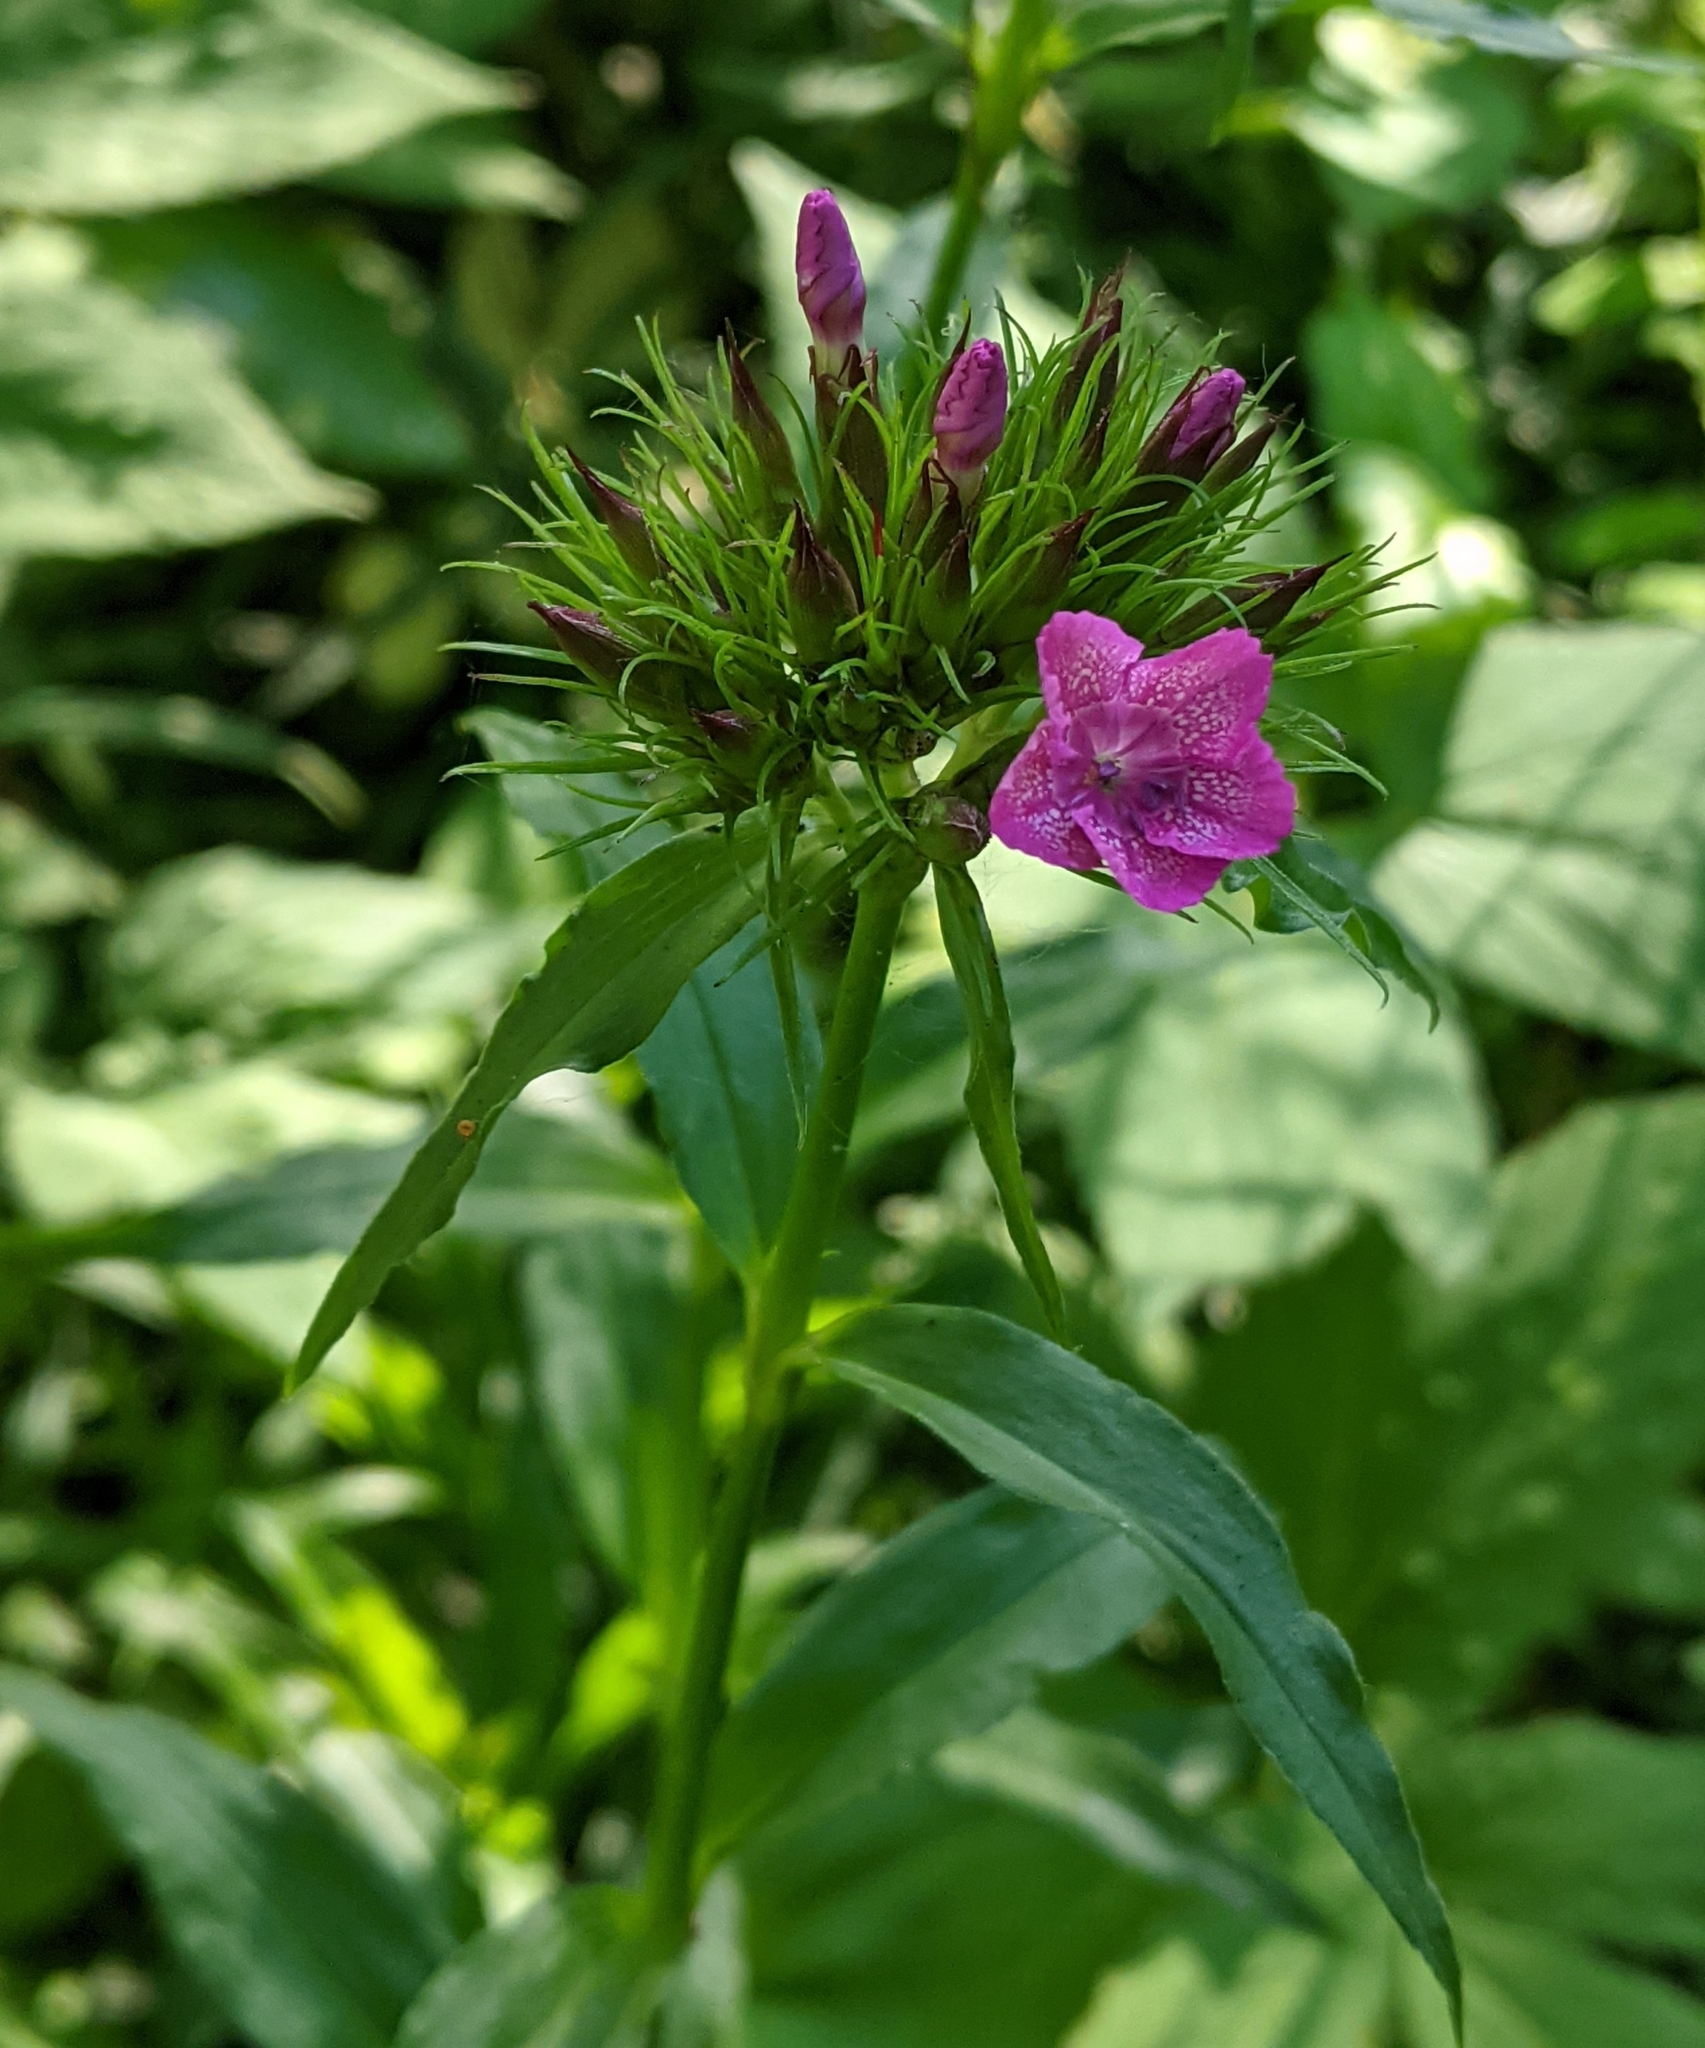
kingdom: Plantae
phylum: Tracheophyta
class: Magnoliopsida
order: Caryophyllales
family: Caryophyllaceae
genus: Dianthus
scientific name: Dianthus barbatus
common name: Sweet-william
